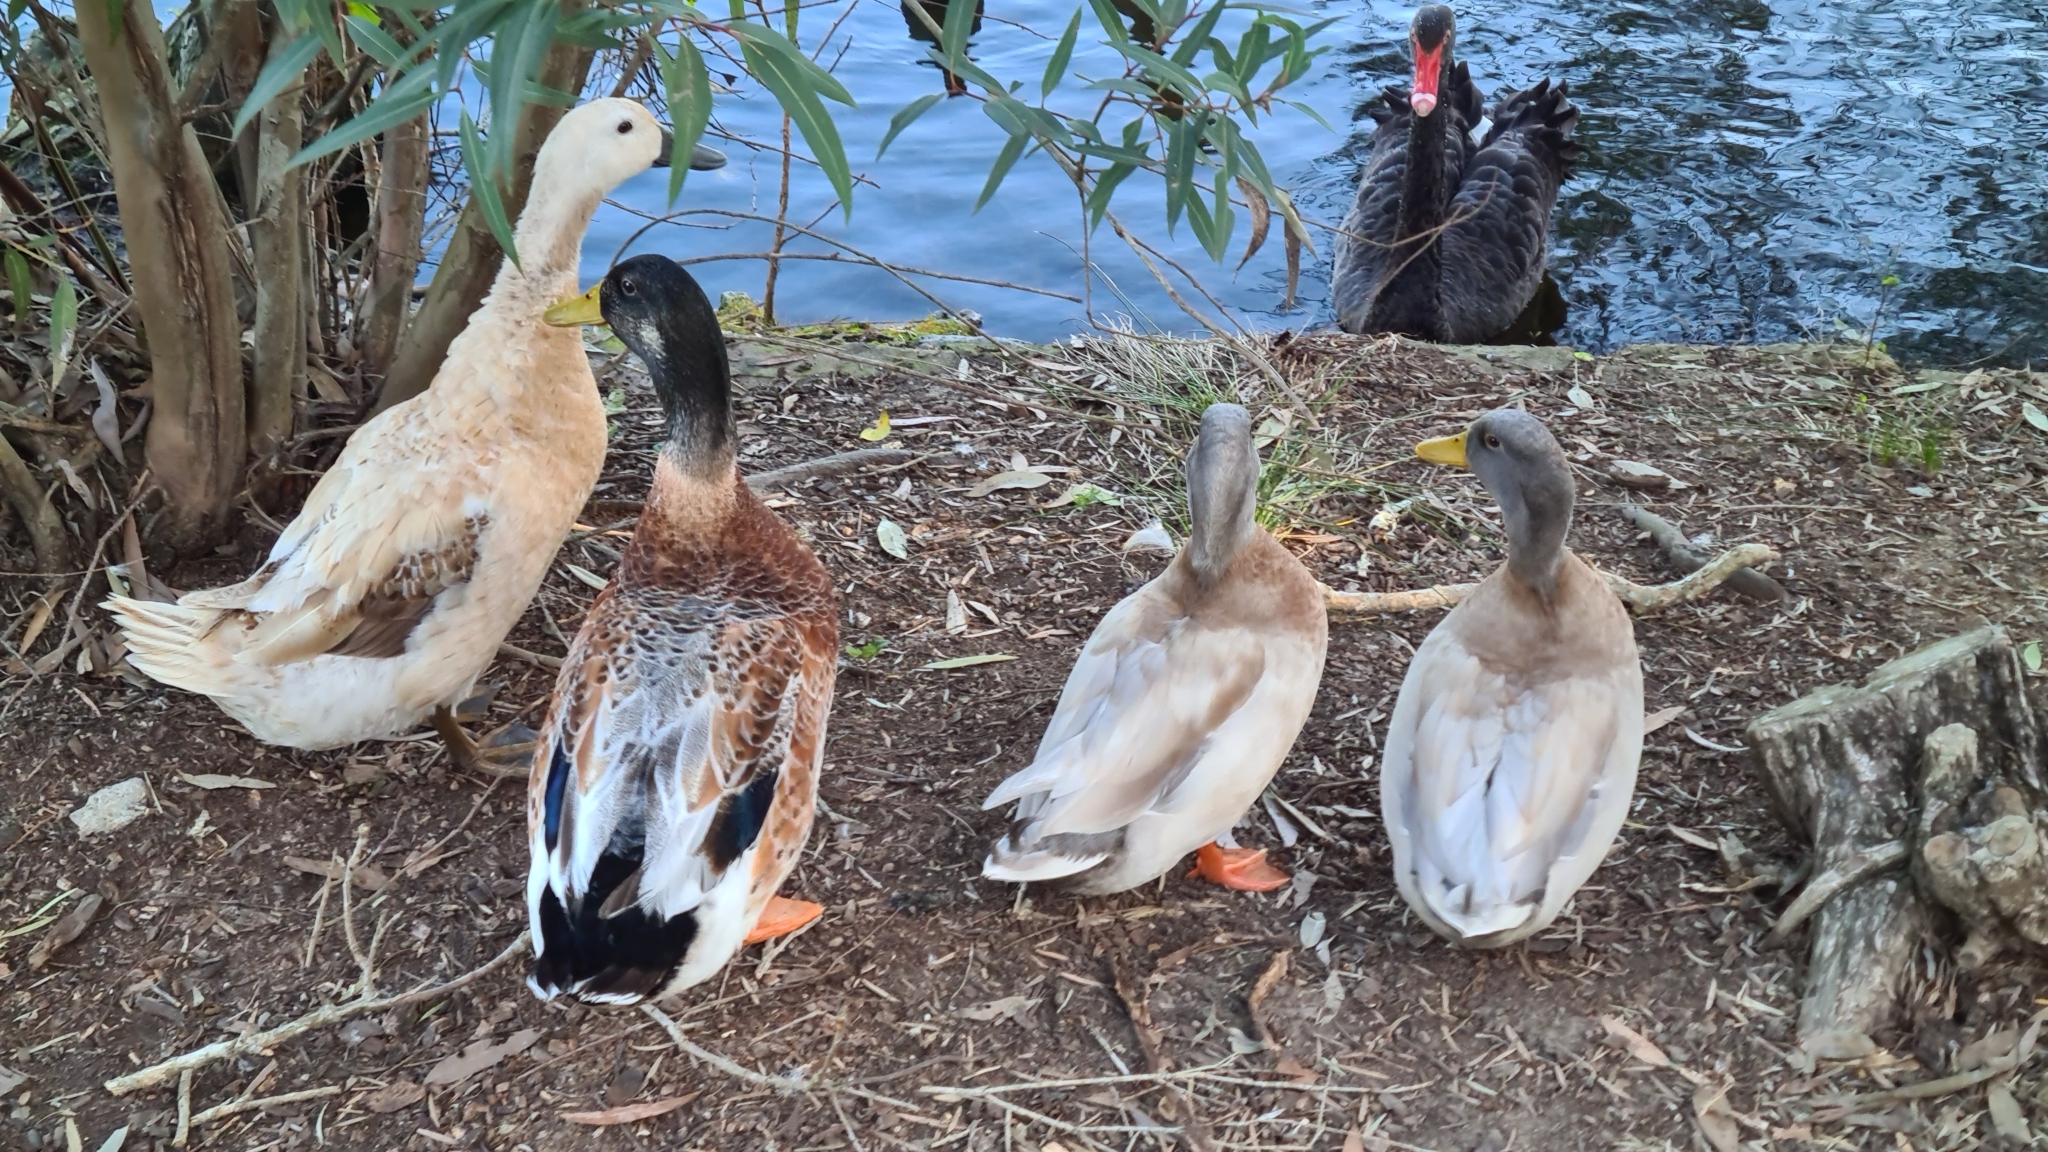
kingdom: Animalia
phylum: Chordata
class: Aves
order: Anseriformes
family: Anatidae
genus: Anas
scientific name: Anas platyrhynchos
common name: Mallard
